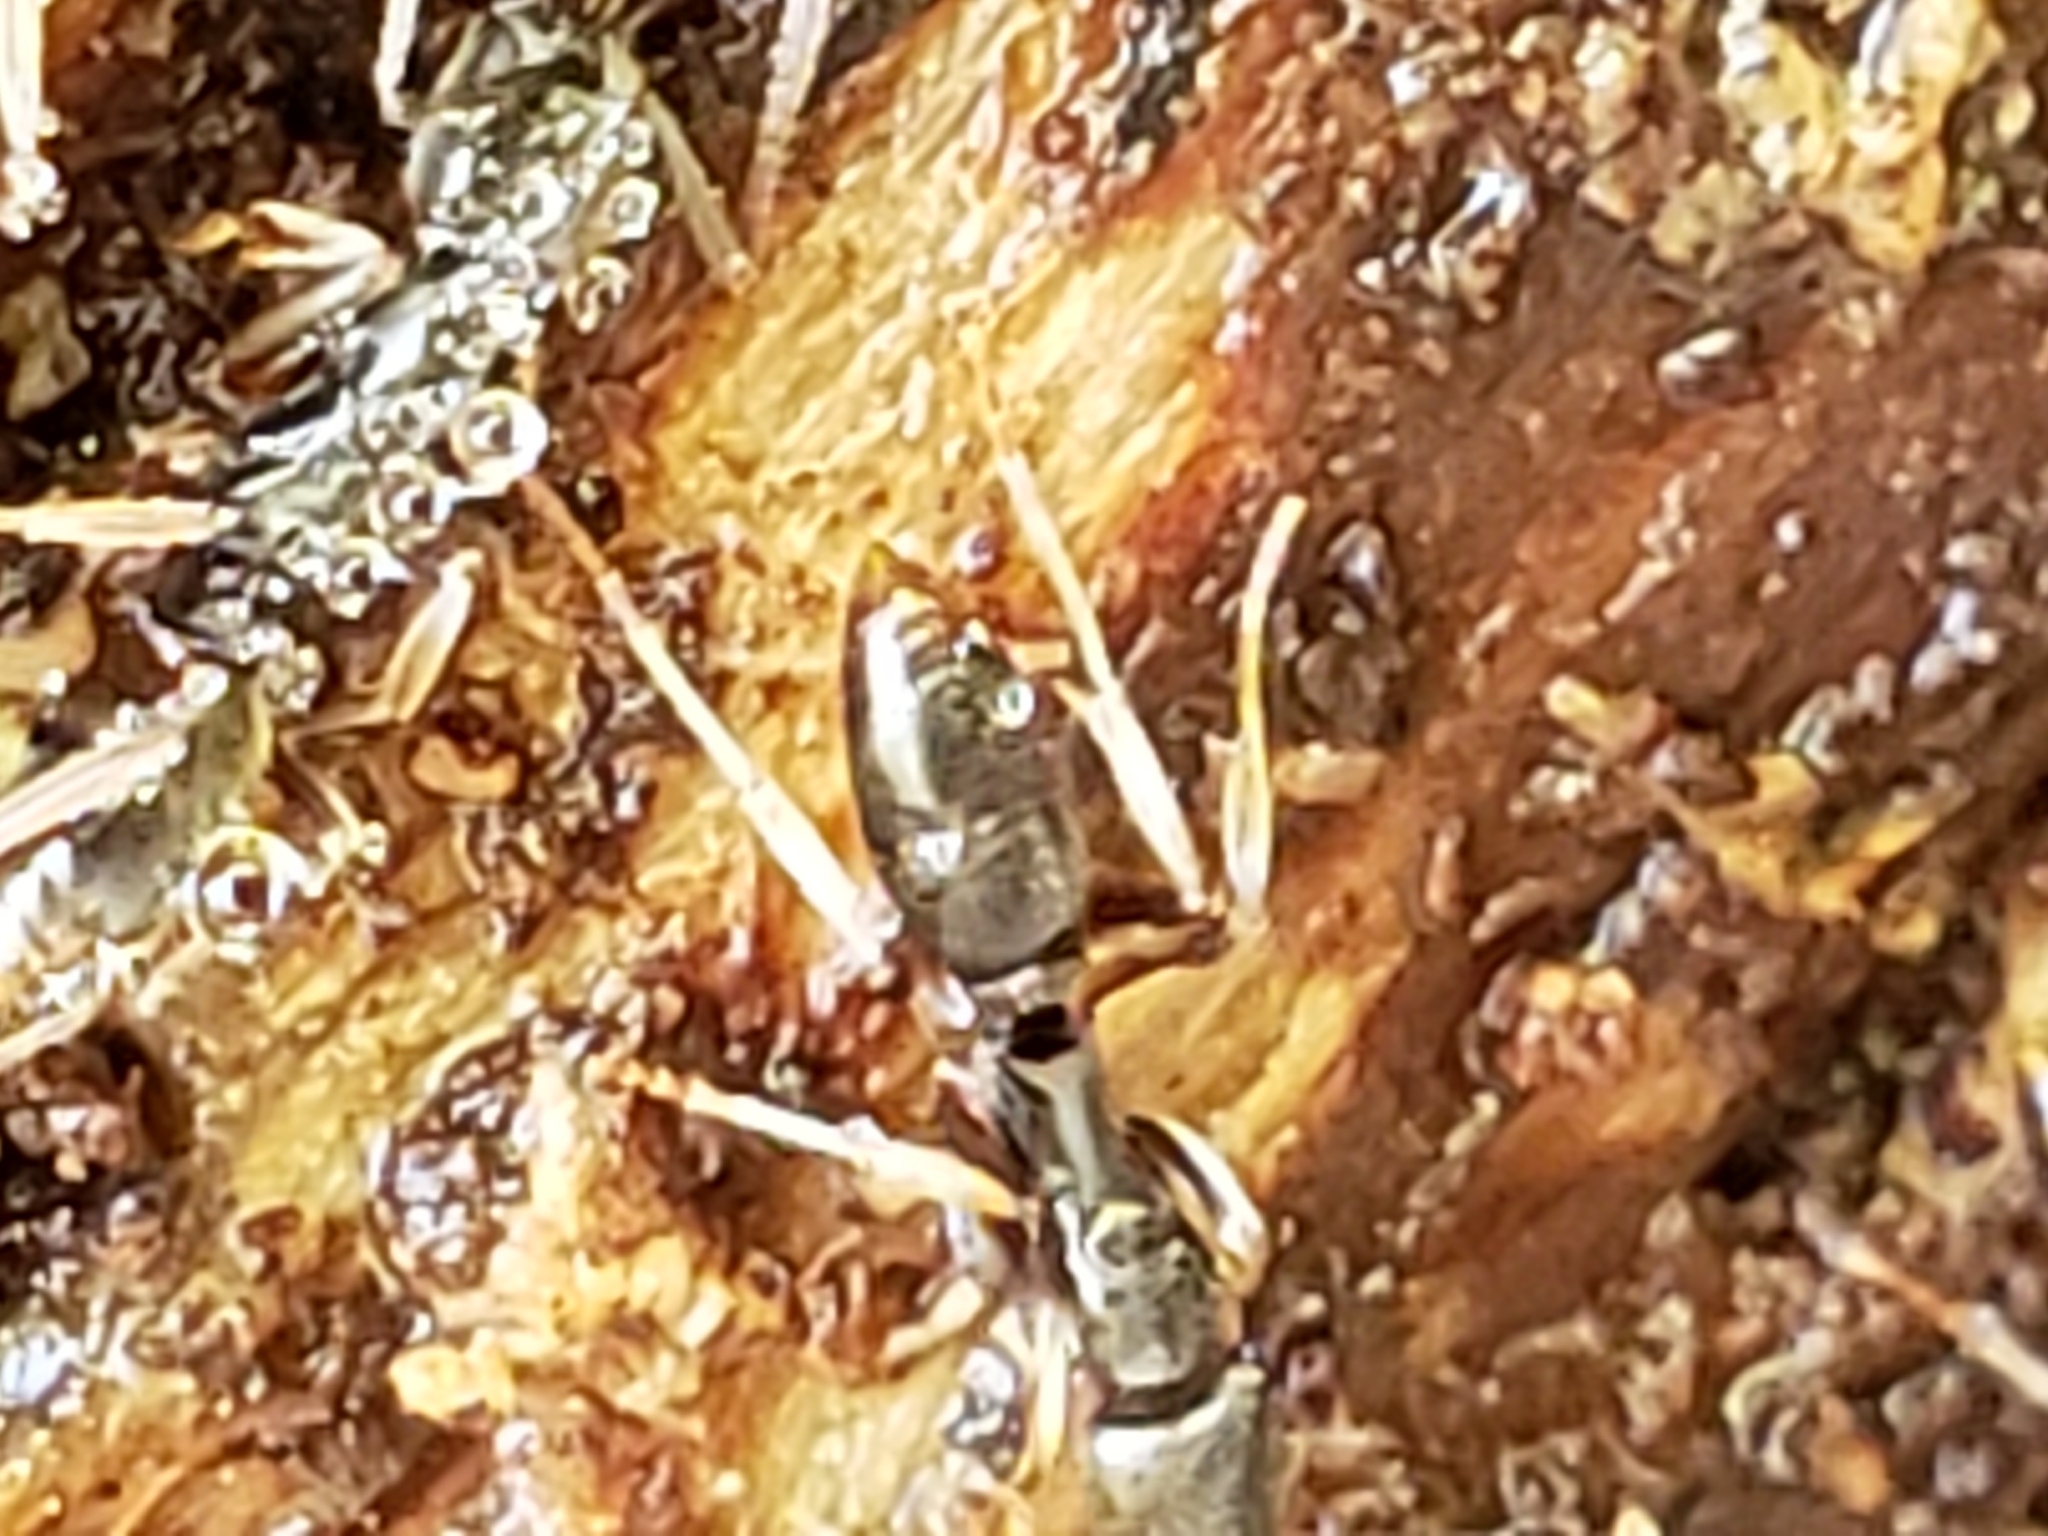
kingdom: Animalia
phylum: Arthropoda
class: Insecta
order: Hymenoptera
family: Formicidae
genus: Pachycondyla
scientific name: Pachycondyla chinensis
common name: Asian needle ant
